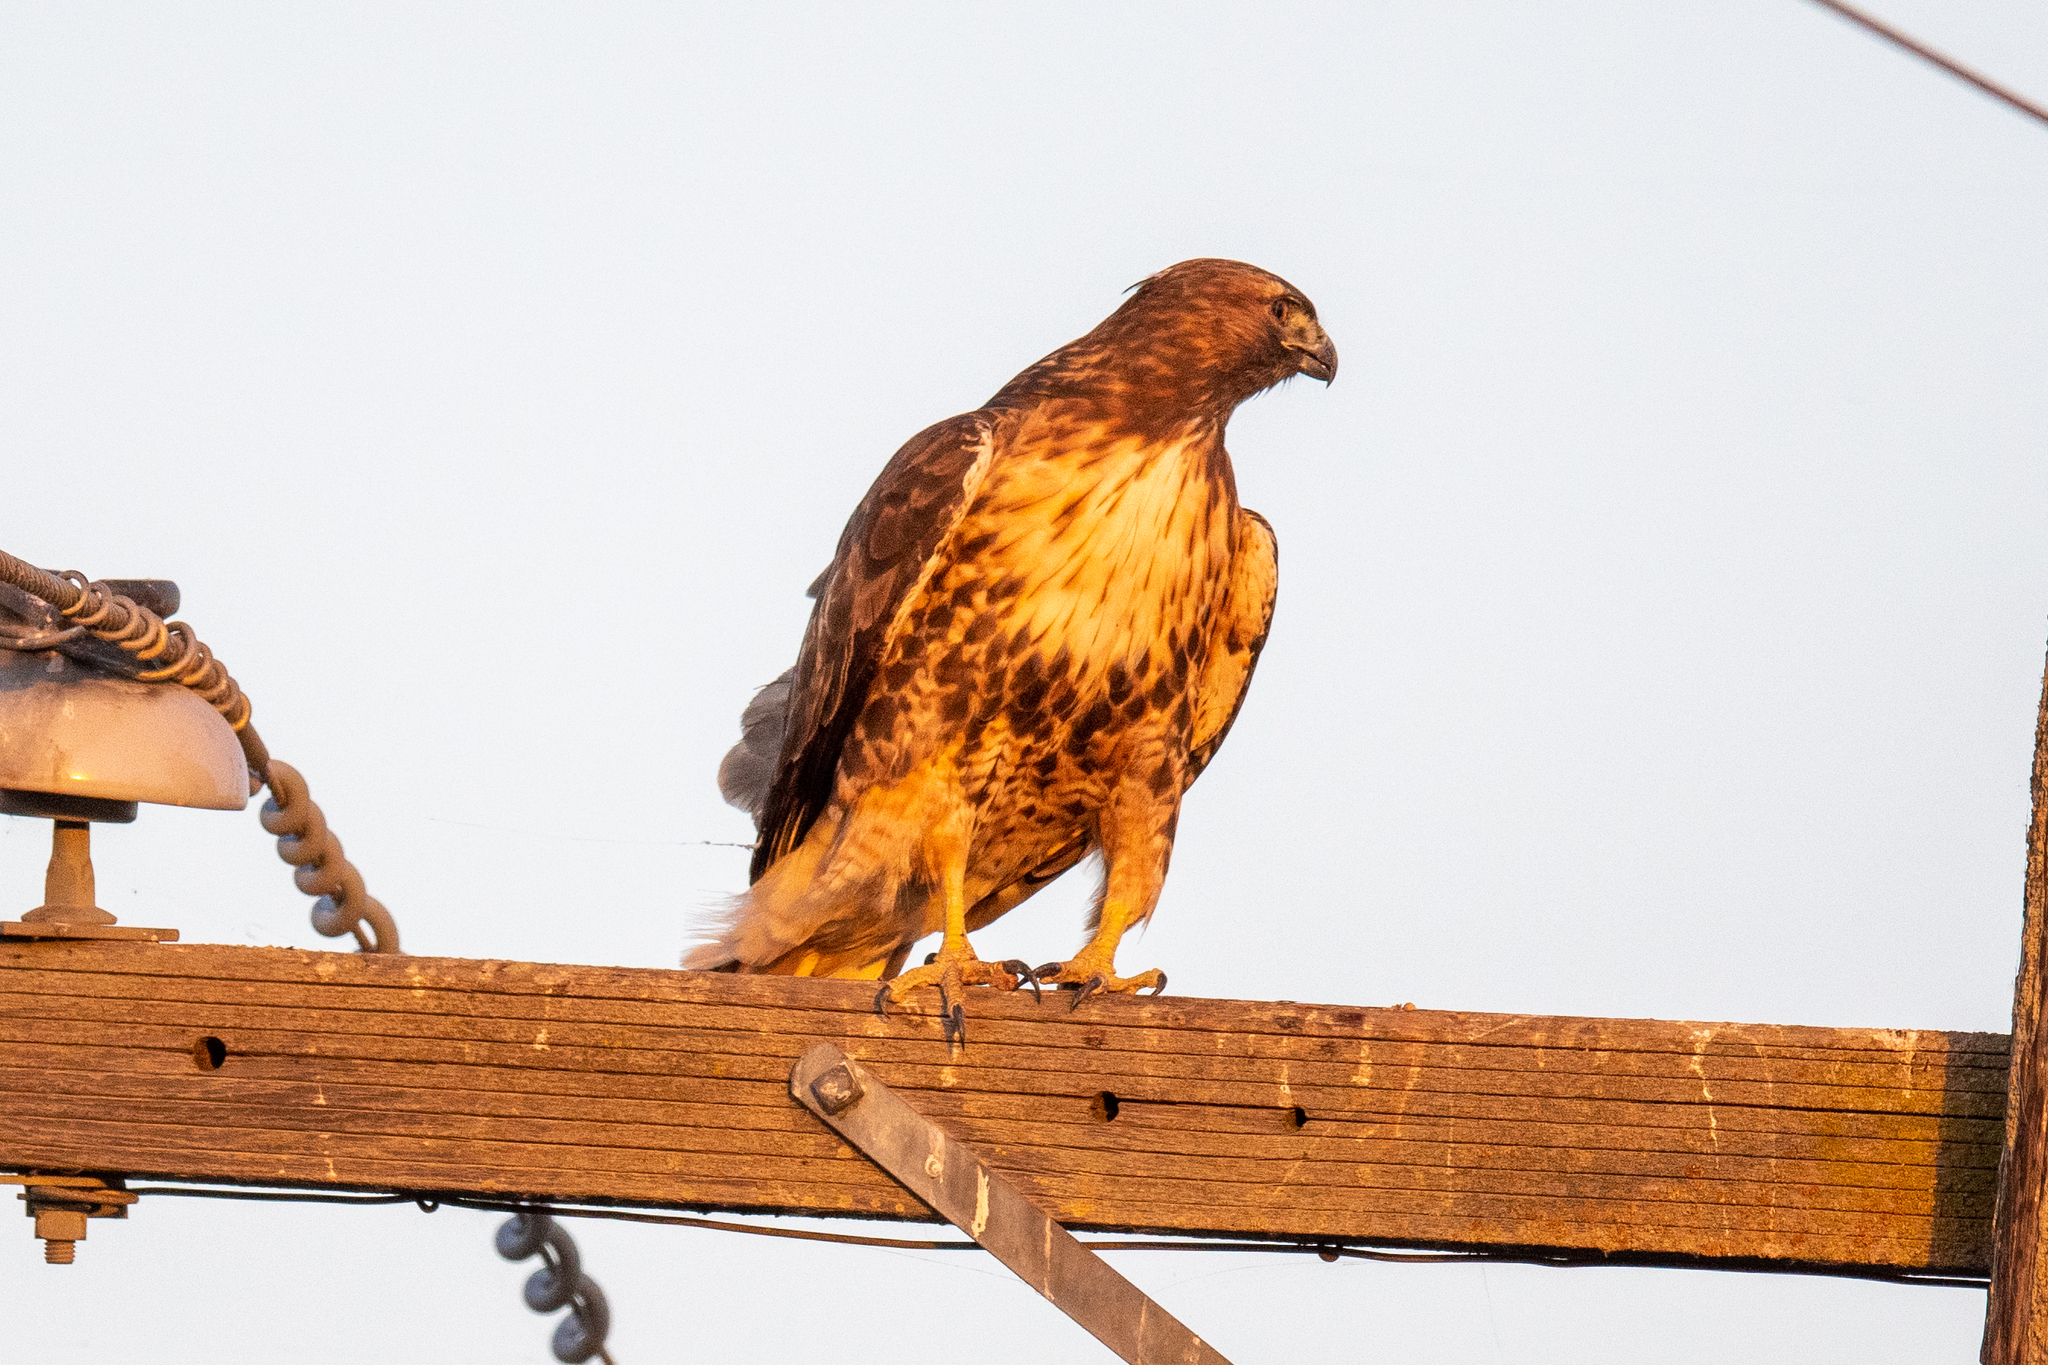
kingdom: Animalia
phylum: Chordata
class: Aves
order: Accipitriformes
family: Accipitridae
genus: Buteo
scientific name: Buteo jamaicensis
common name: Red-tailed hawk
